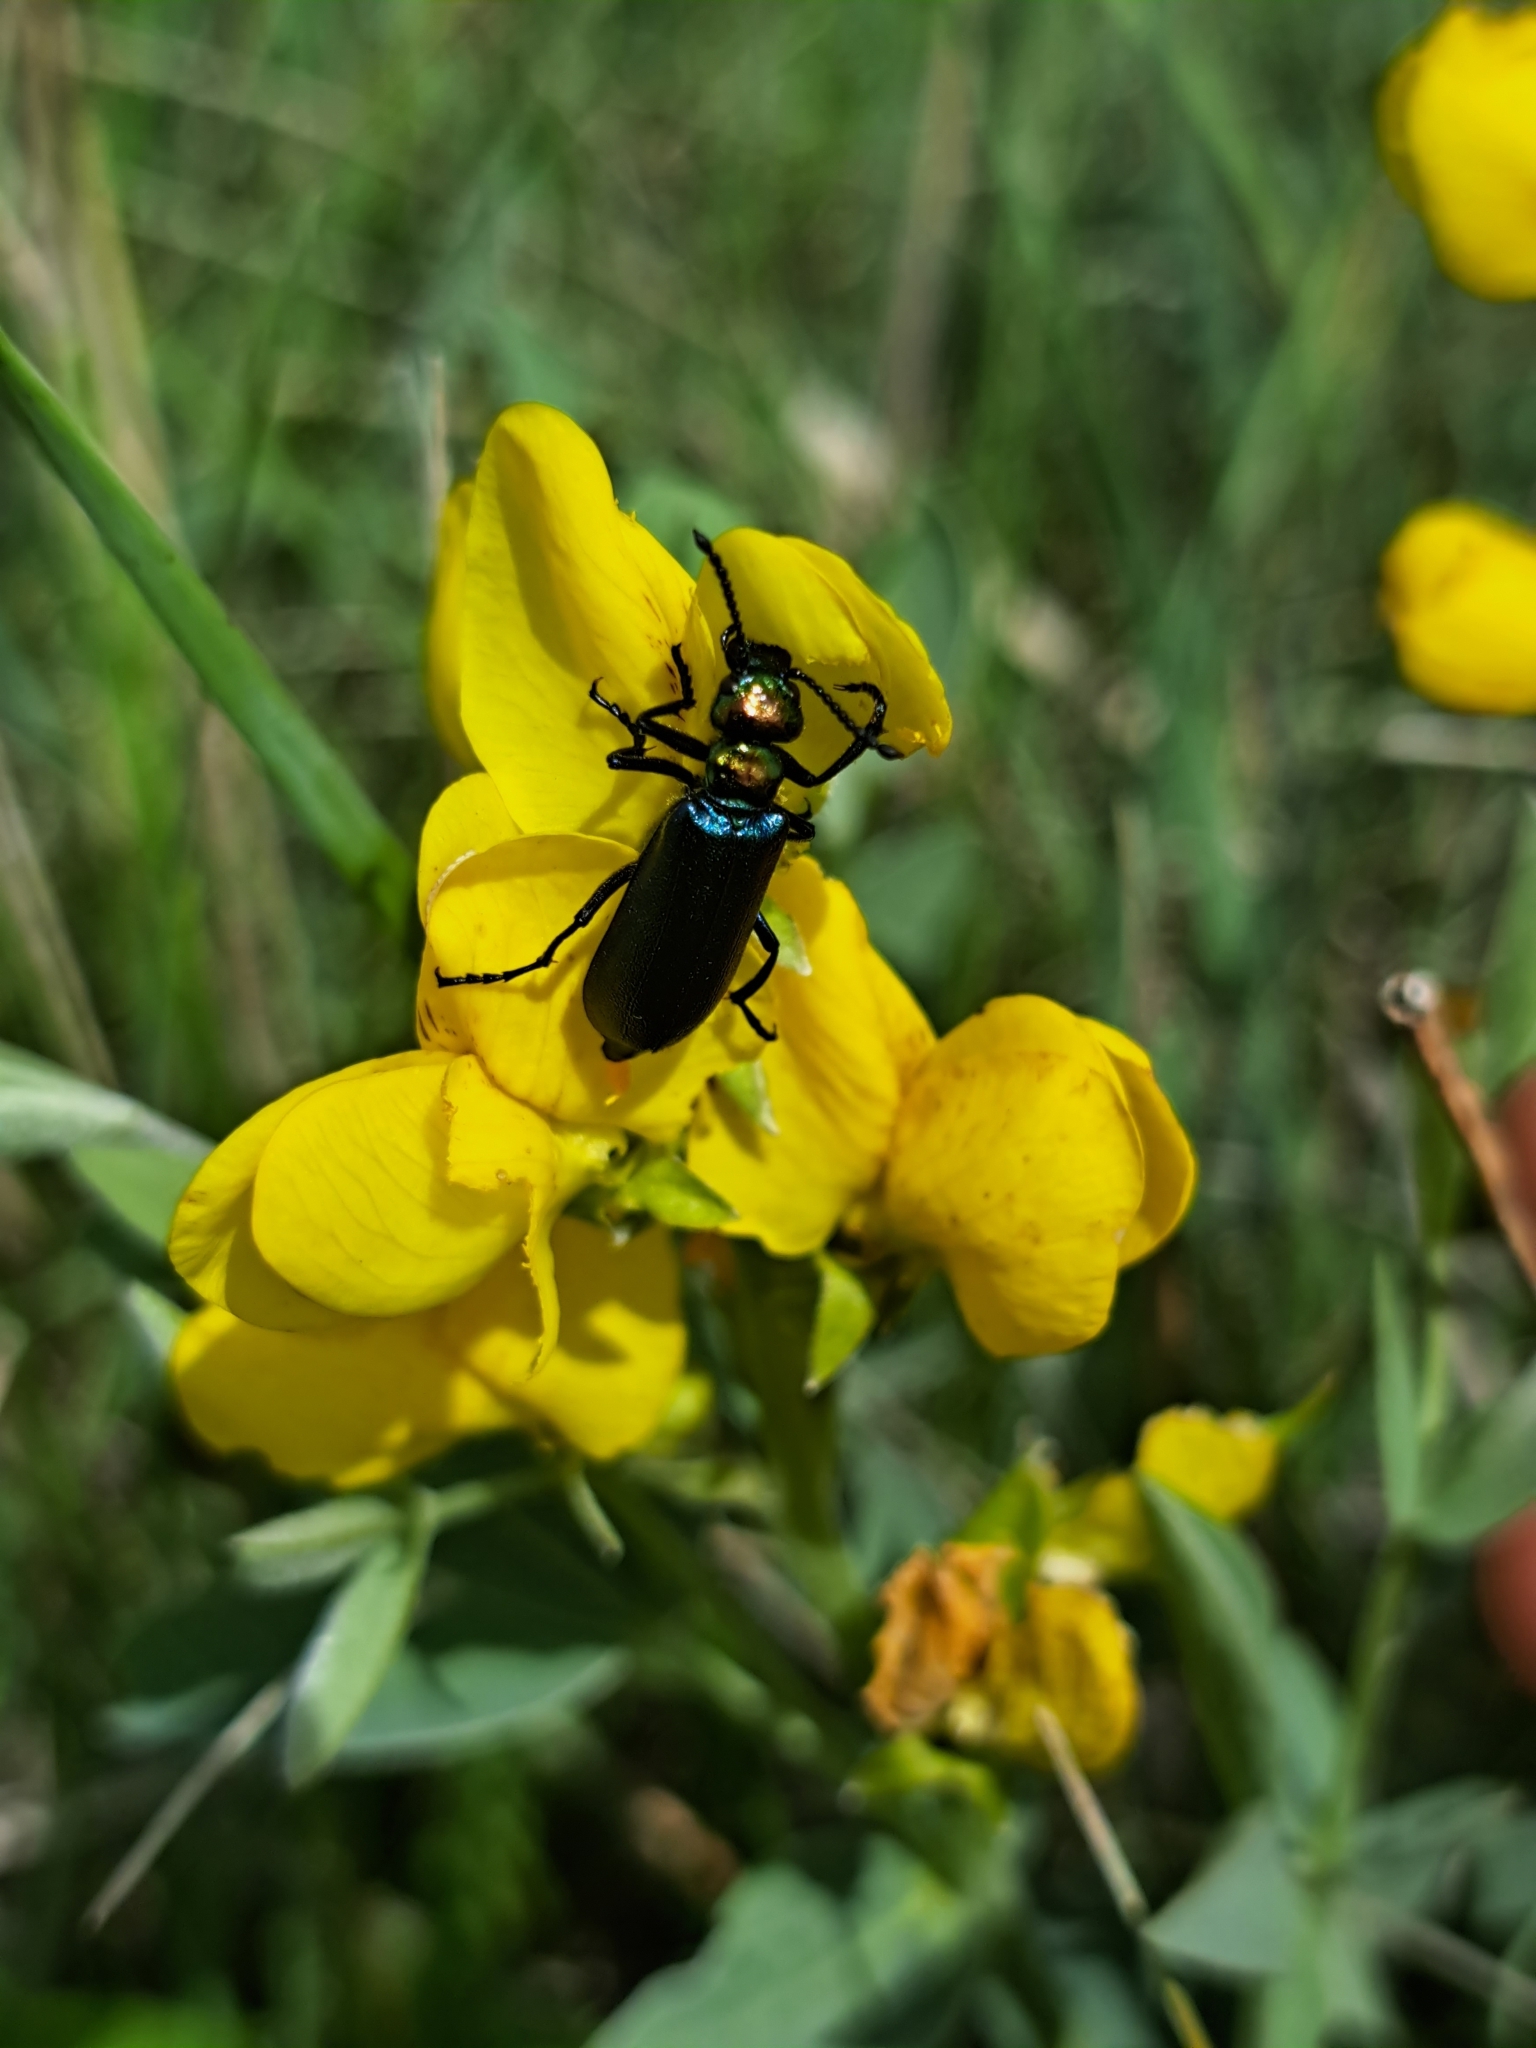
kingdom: Animalia
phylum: Arthropoda
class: Insecta
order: Coleoptera
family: Meloidae
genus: Lytta
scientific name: Lytta nuttallii
